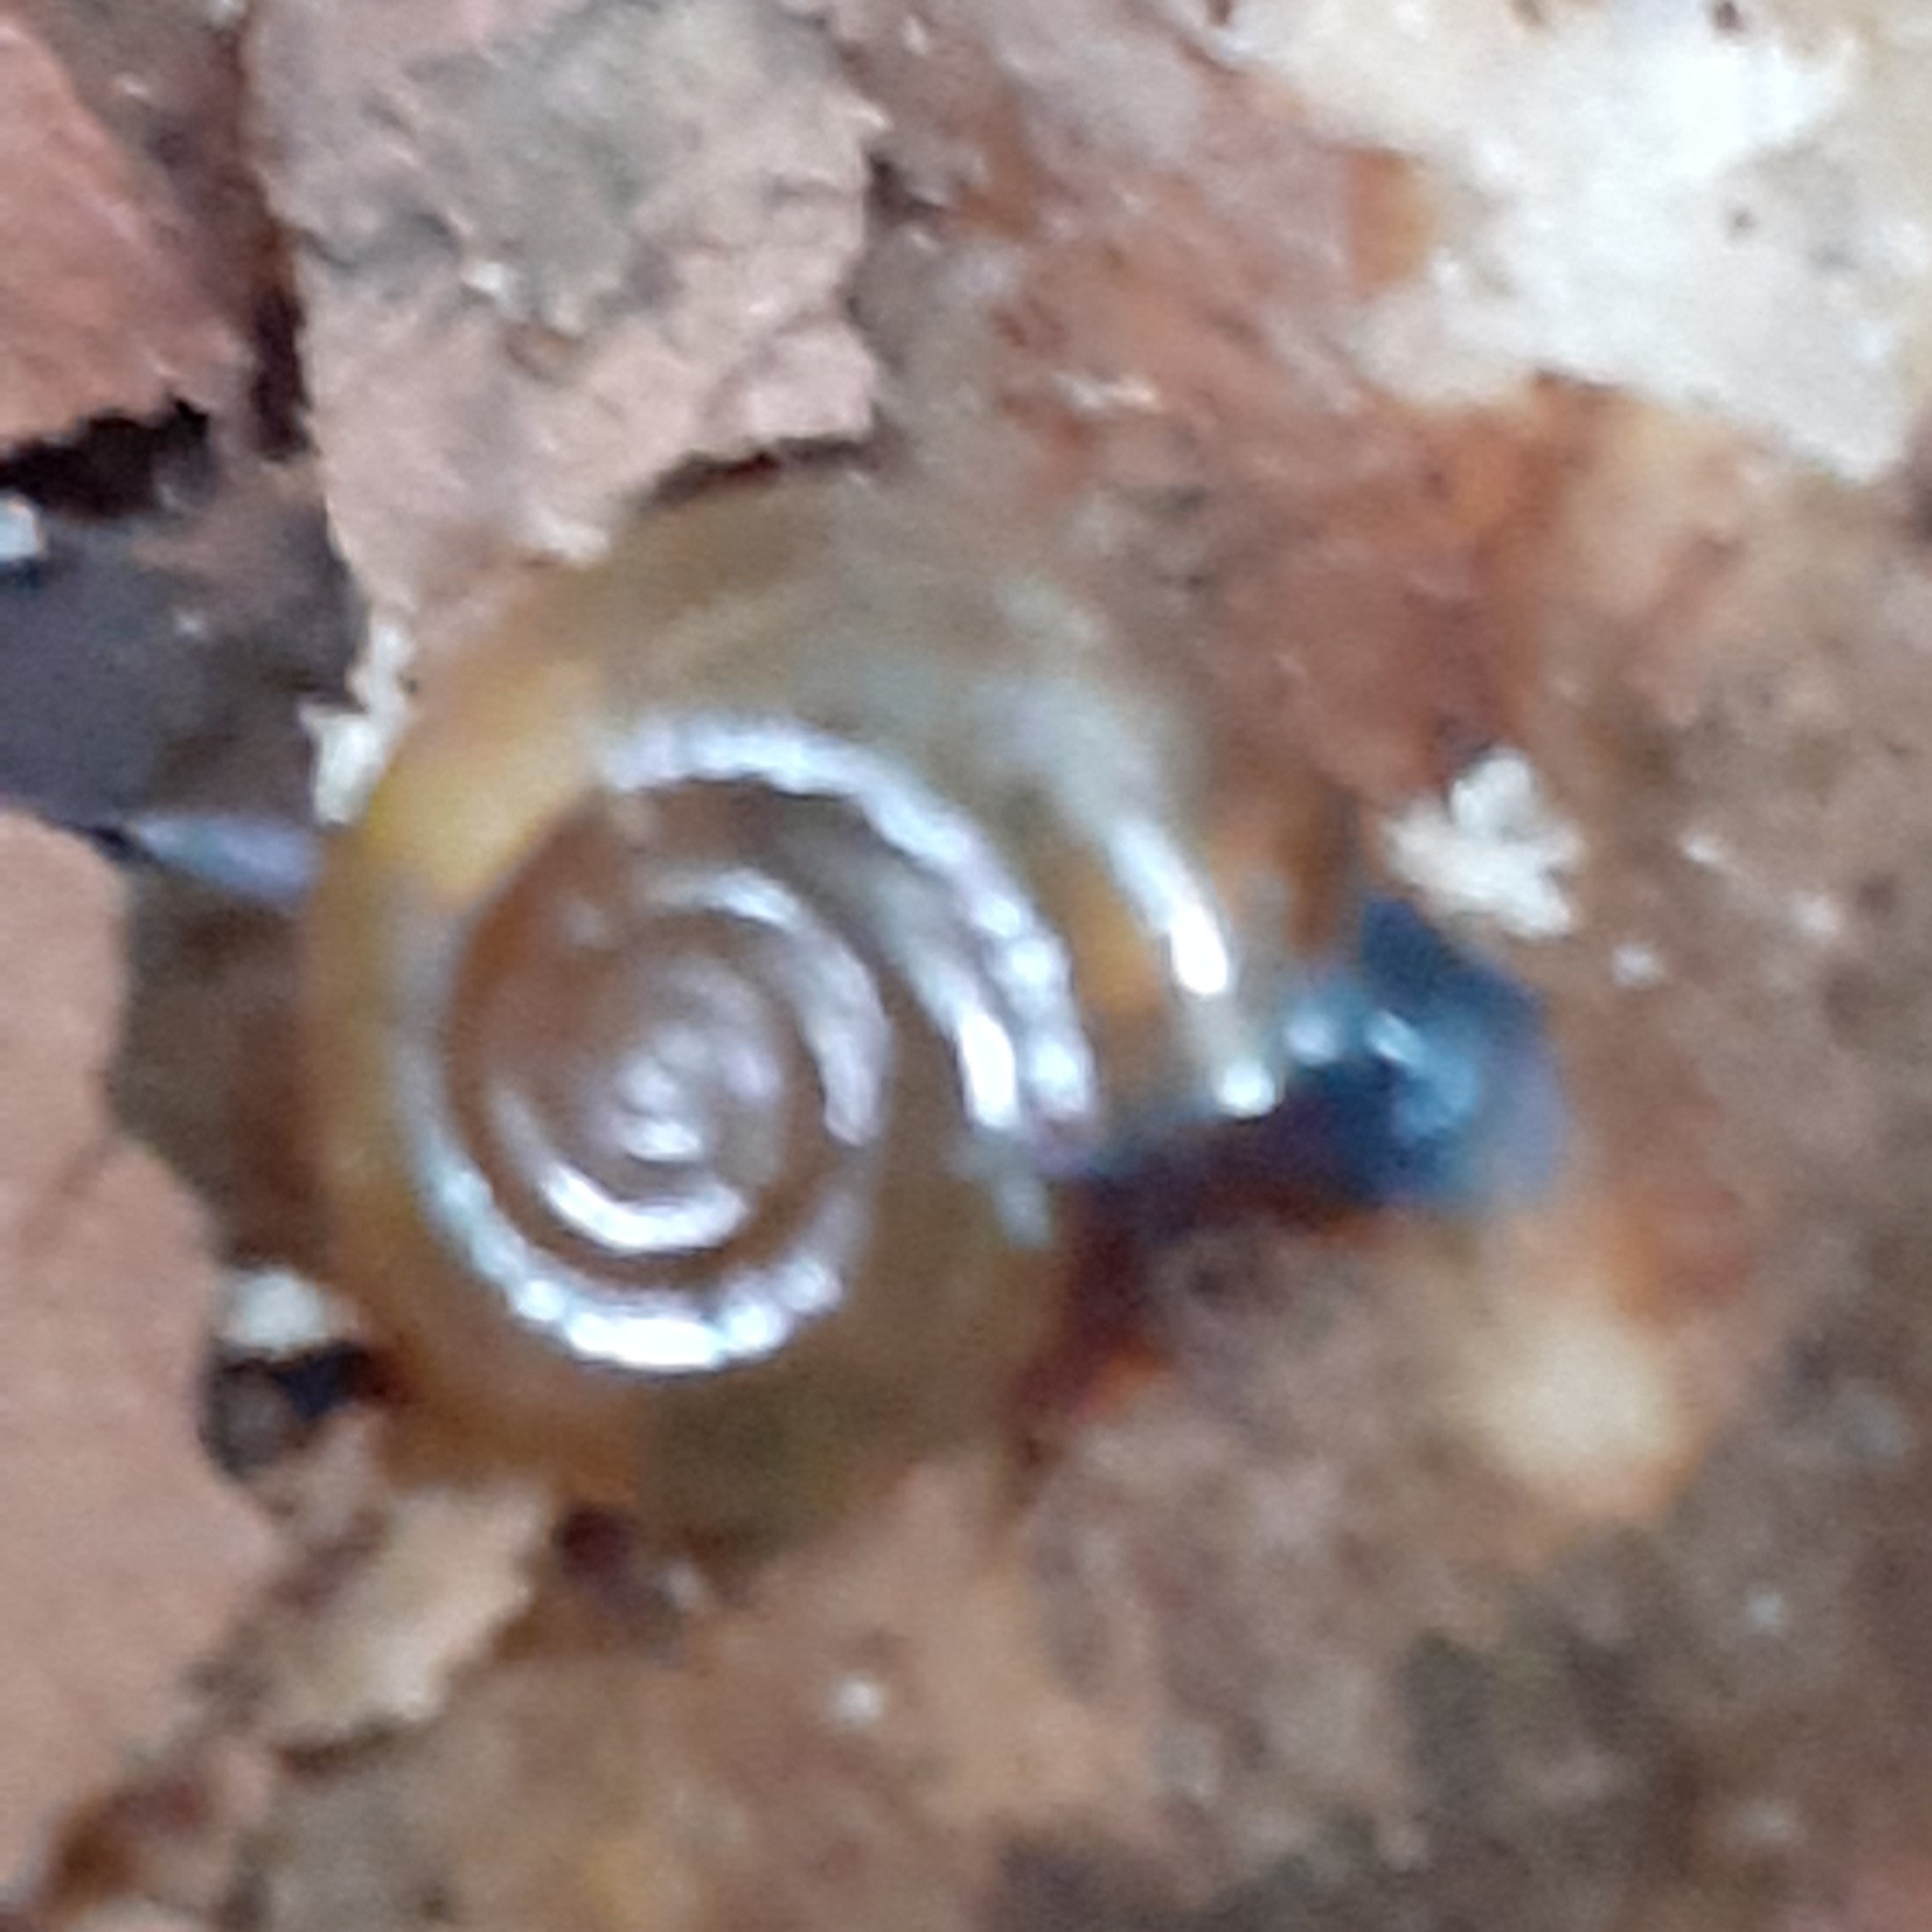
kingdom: Animalia
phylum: Mollusca
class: Gastropoda
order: Stylommatophora
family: Oxychilidae
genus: Oxychilus
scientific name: Oxychilus draparnaudi
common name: Draparnaud's glass snail
